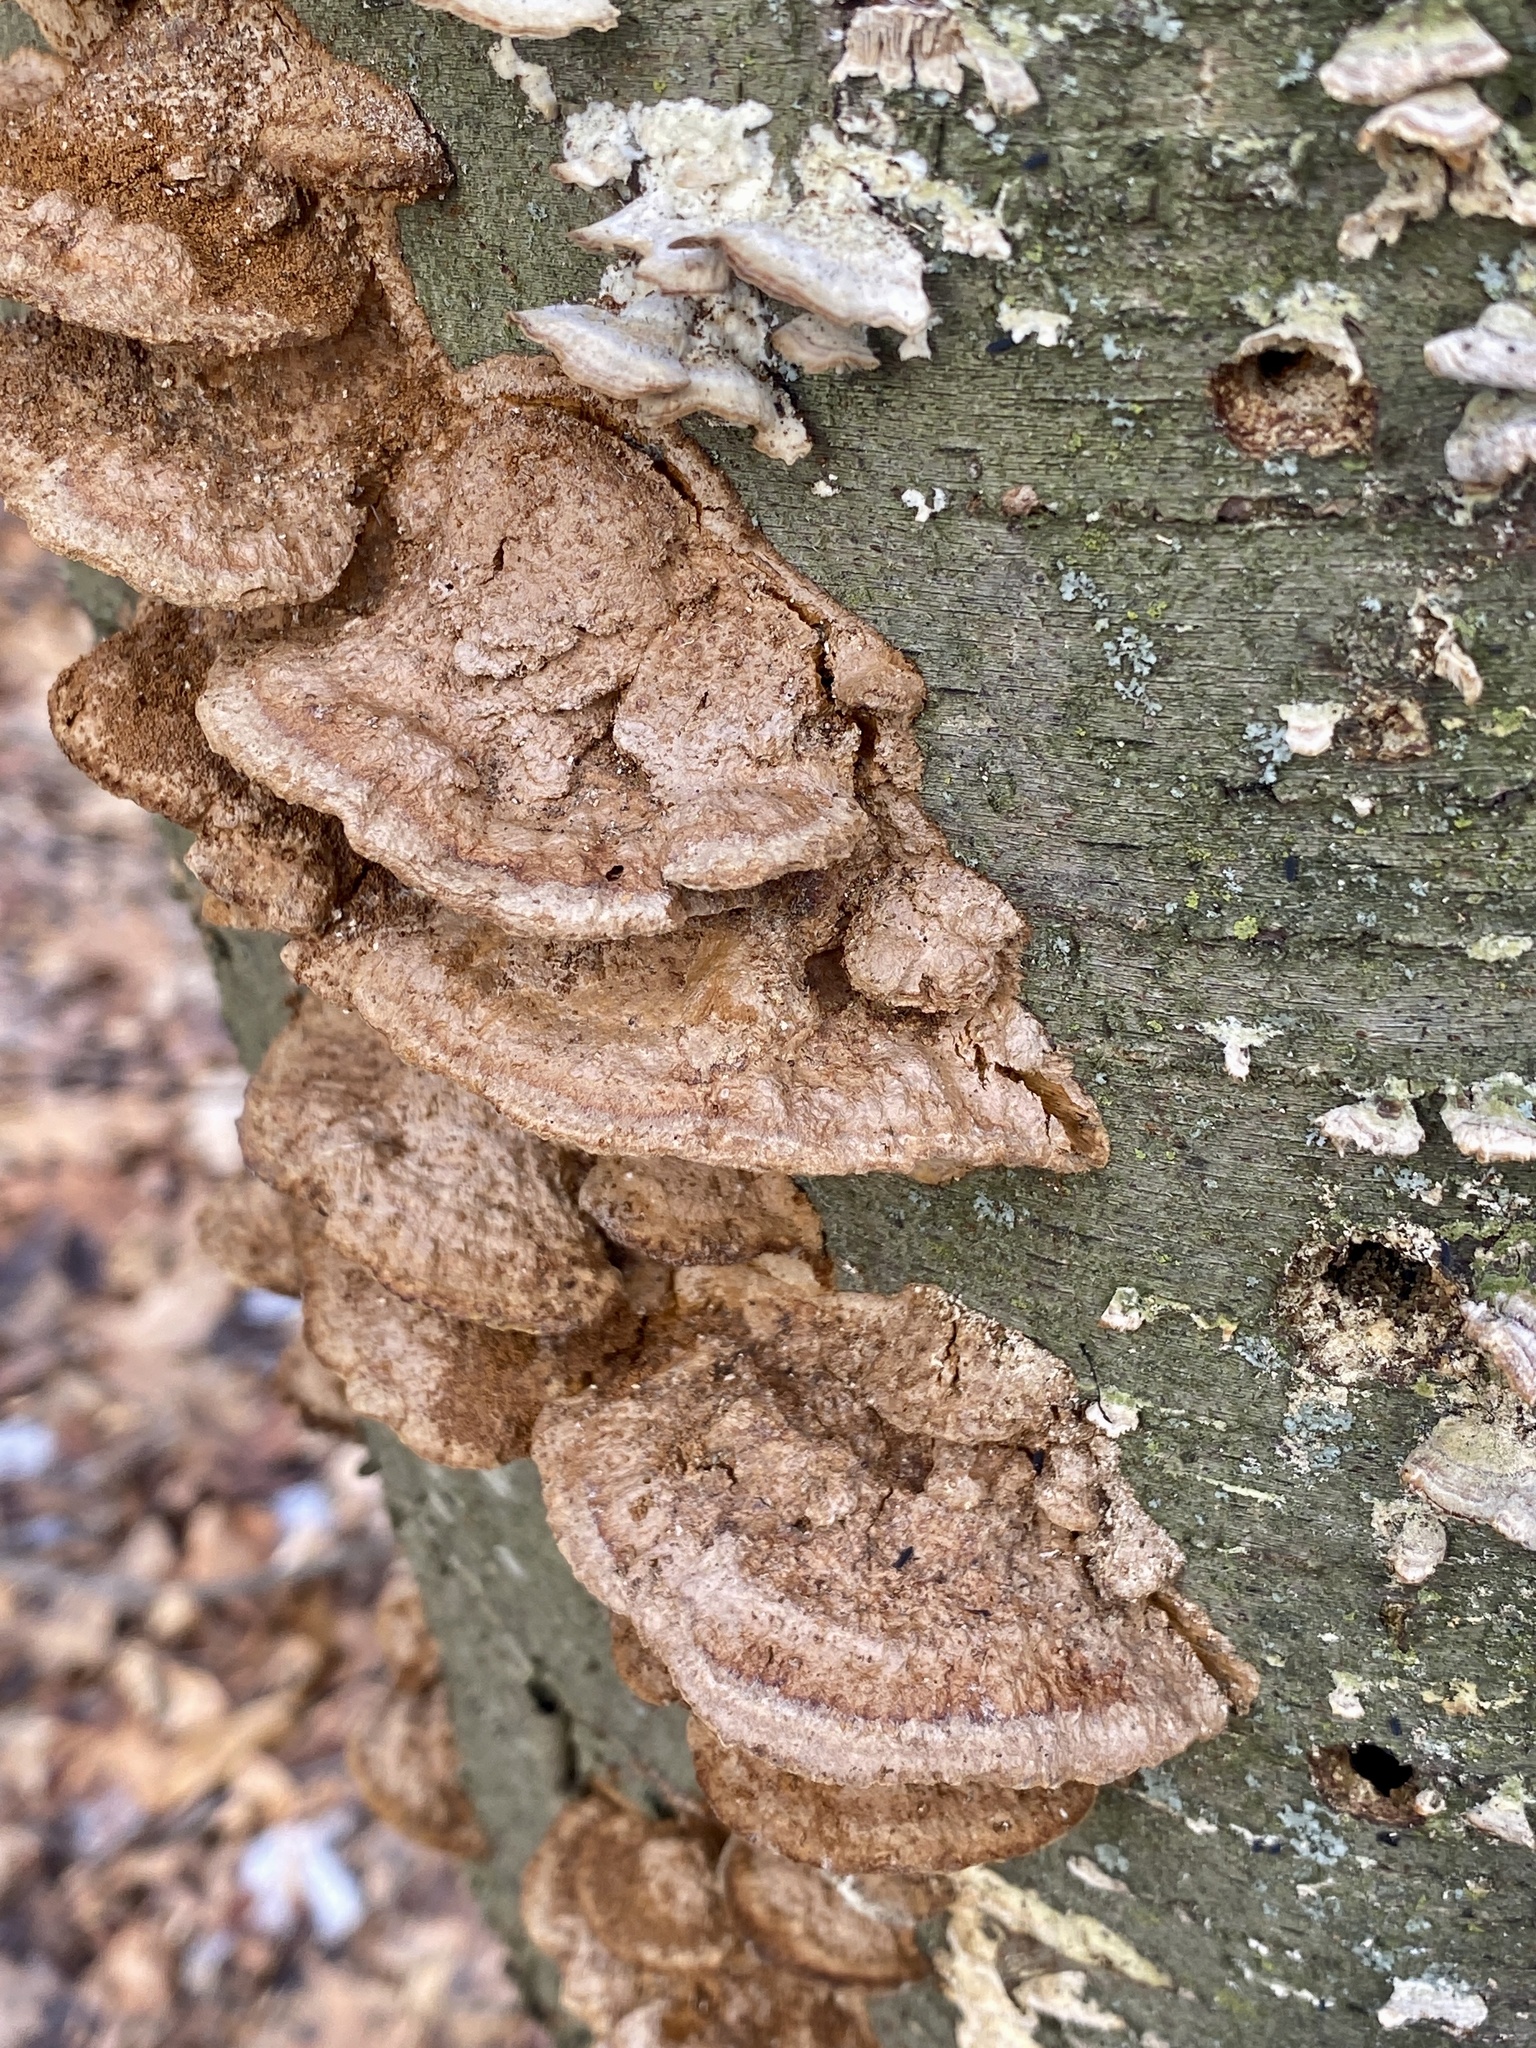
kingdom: Fungi
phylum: Basidiomycota
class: Agaricomycetes
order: Hymenochaetales
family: Hymenochaetaceae
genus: Phellinus
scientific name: Phellinus gilvus
